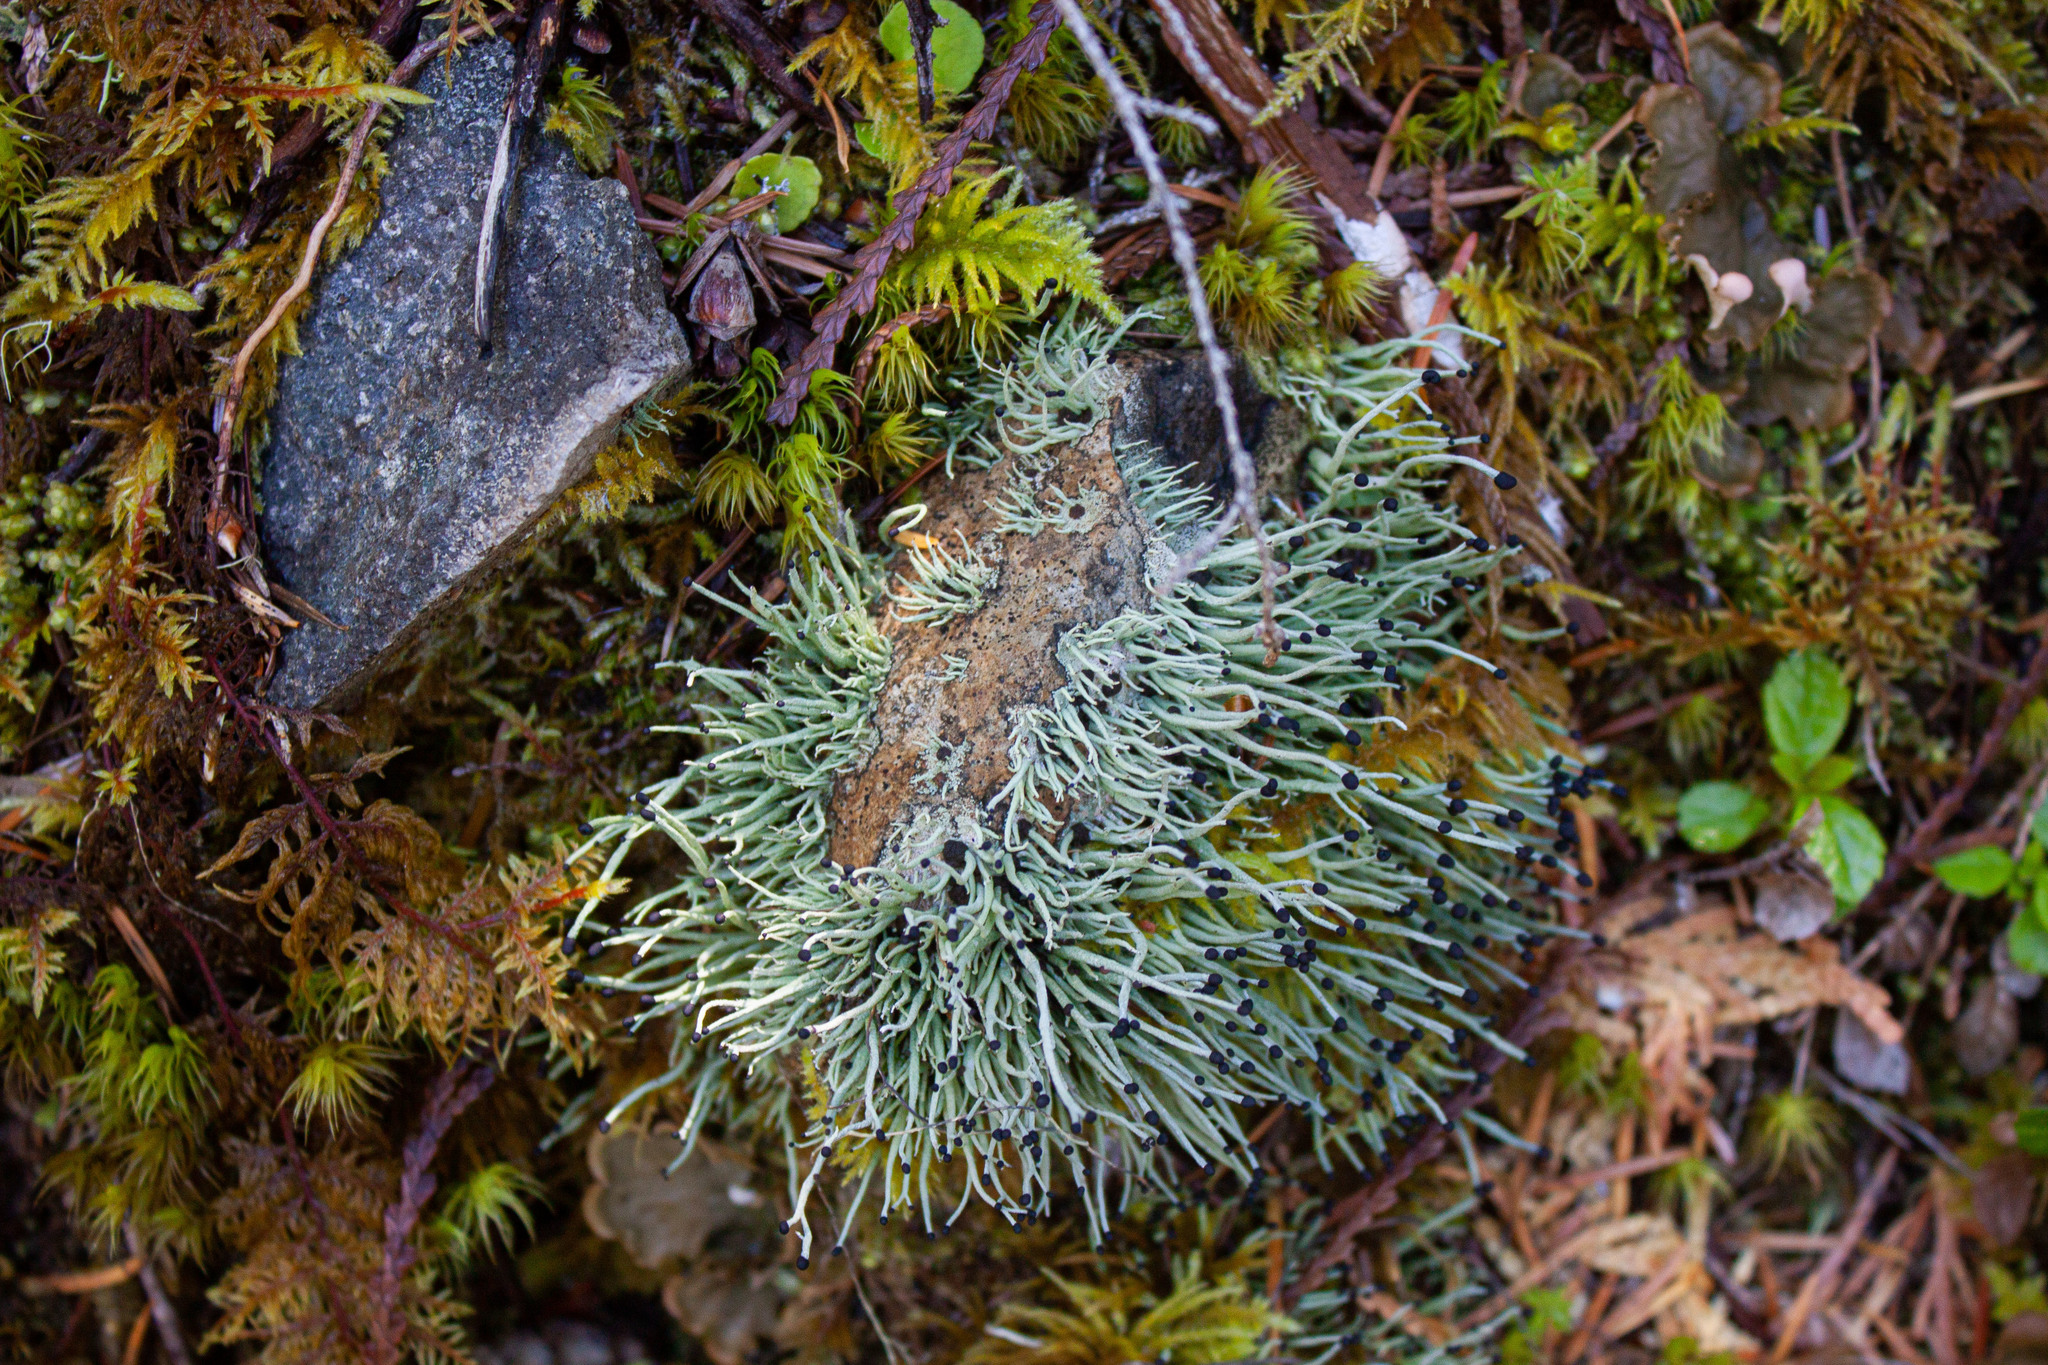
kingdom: Fungi
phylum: Ascomycota
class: Lecanoromycetes
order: Lecanorales
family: Cladoniaceae
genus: Pilophorus
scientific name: Pilophorus acicularis
